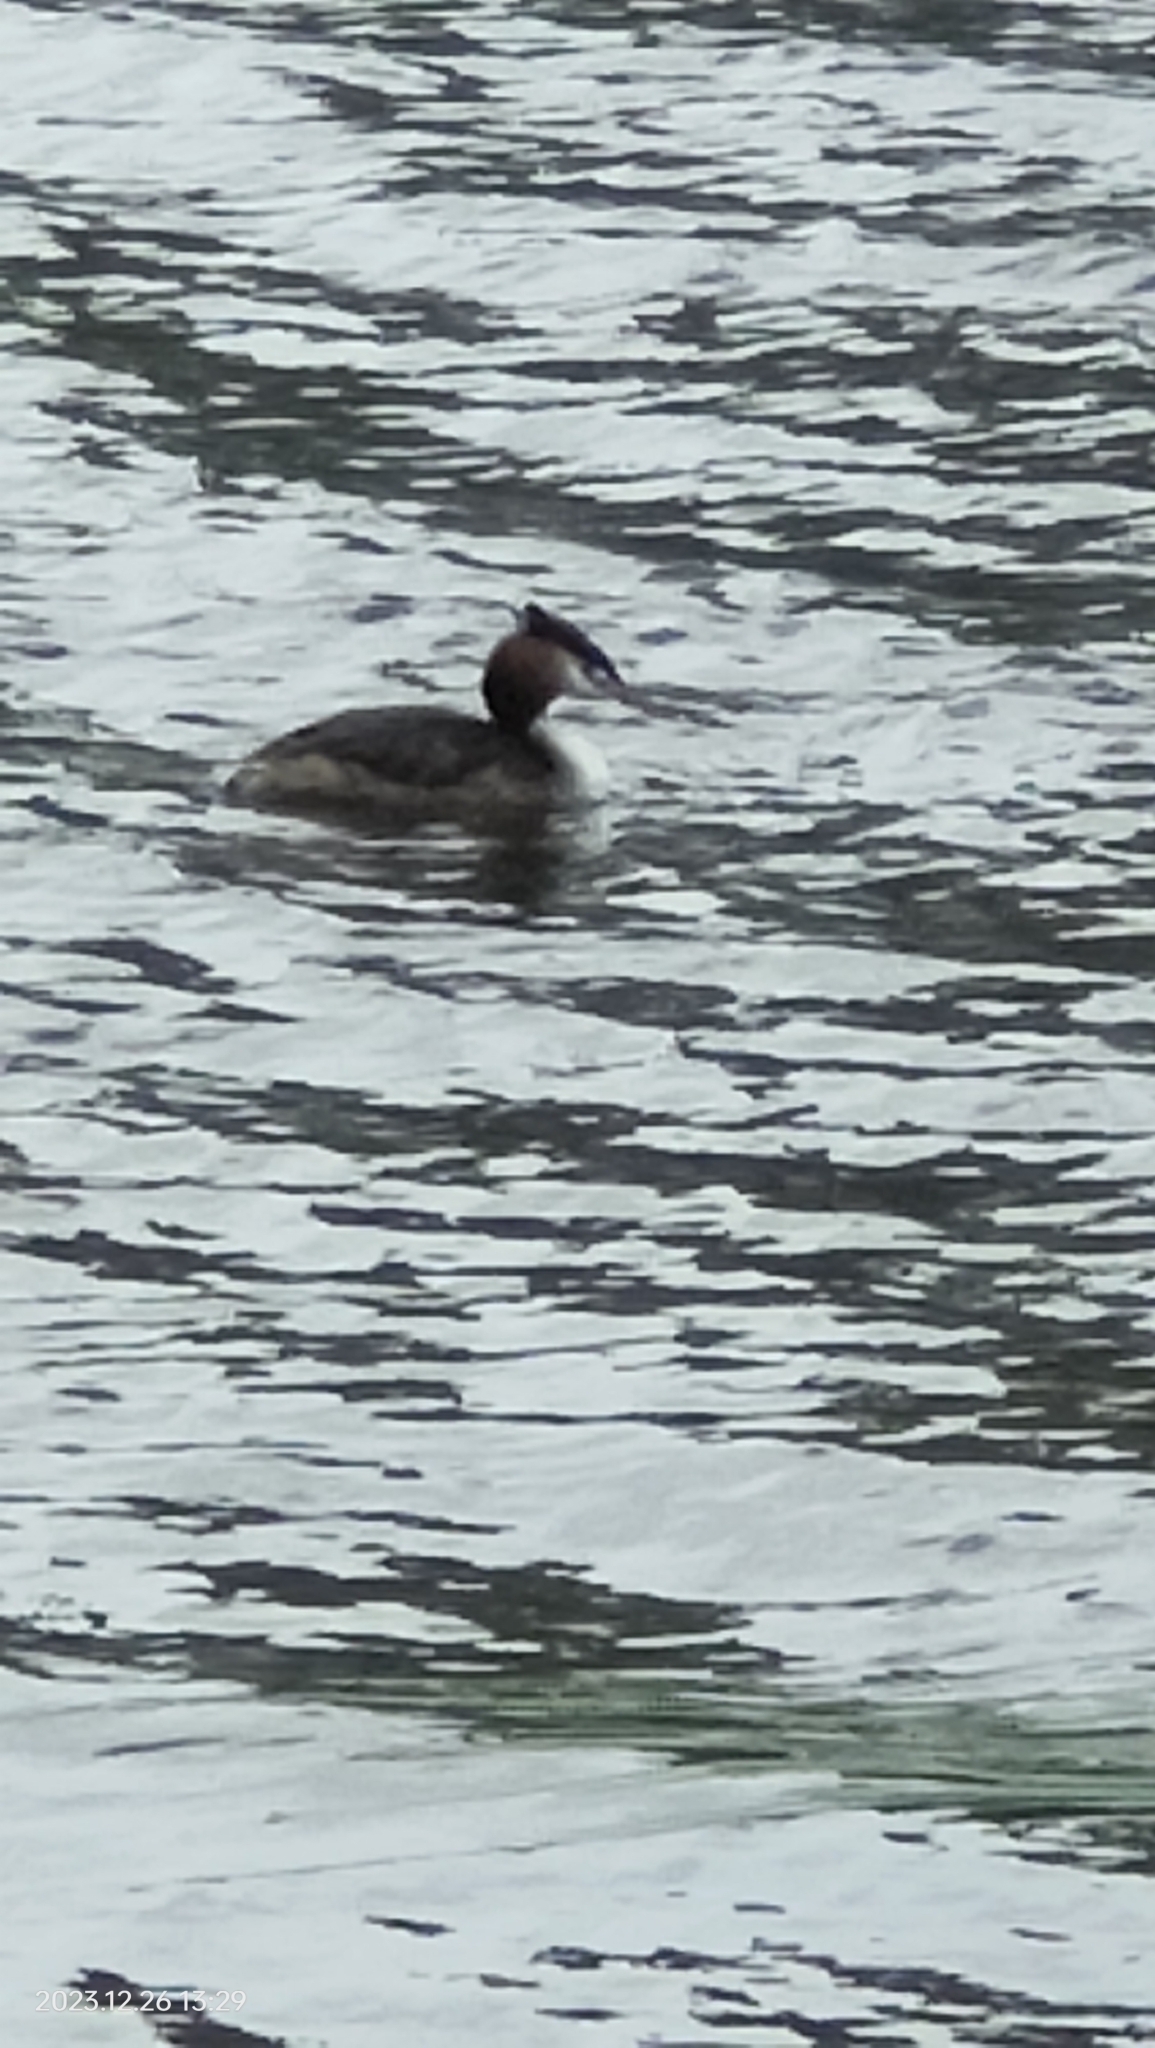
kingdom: Animalia
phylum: Chordata
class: Aves
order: Podicipediformes
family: Podicipedidae
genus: Podiceps
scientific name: Podiceps cristatus
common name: Great crested grebe
